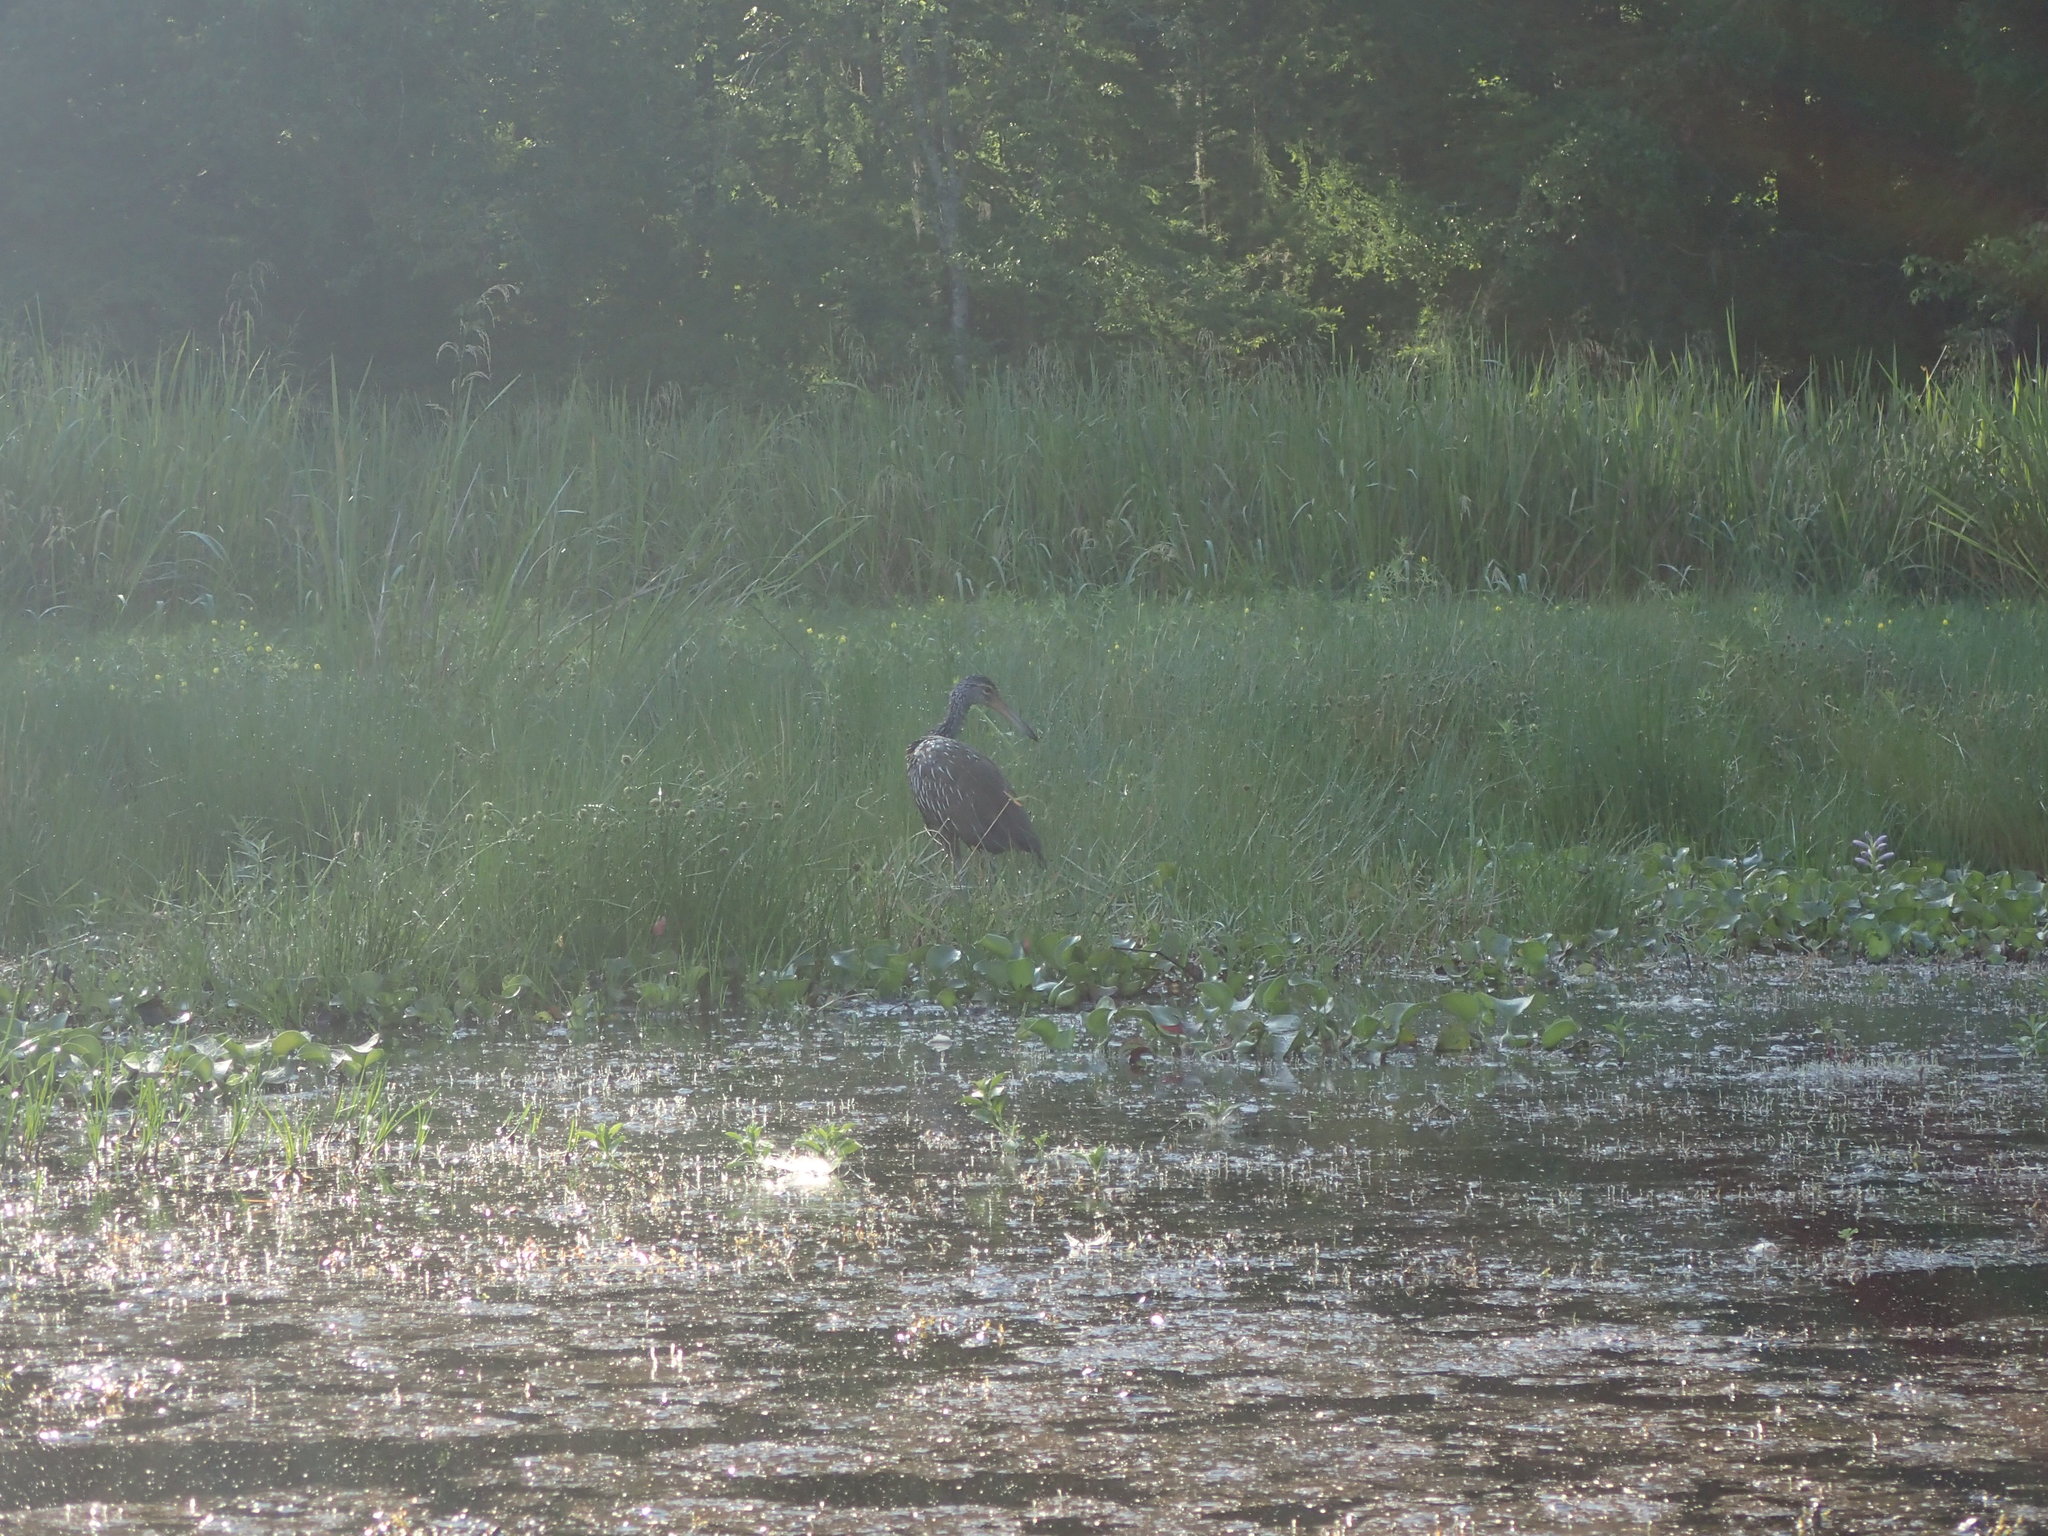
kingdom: Animalia
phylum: Chordata
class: Aves
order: Gruiformes
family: Aramidae
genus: Aramus
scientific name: Aramus guarauna
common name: Limpkin
